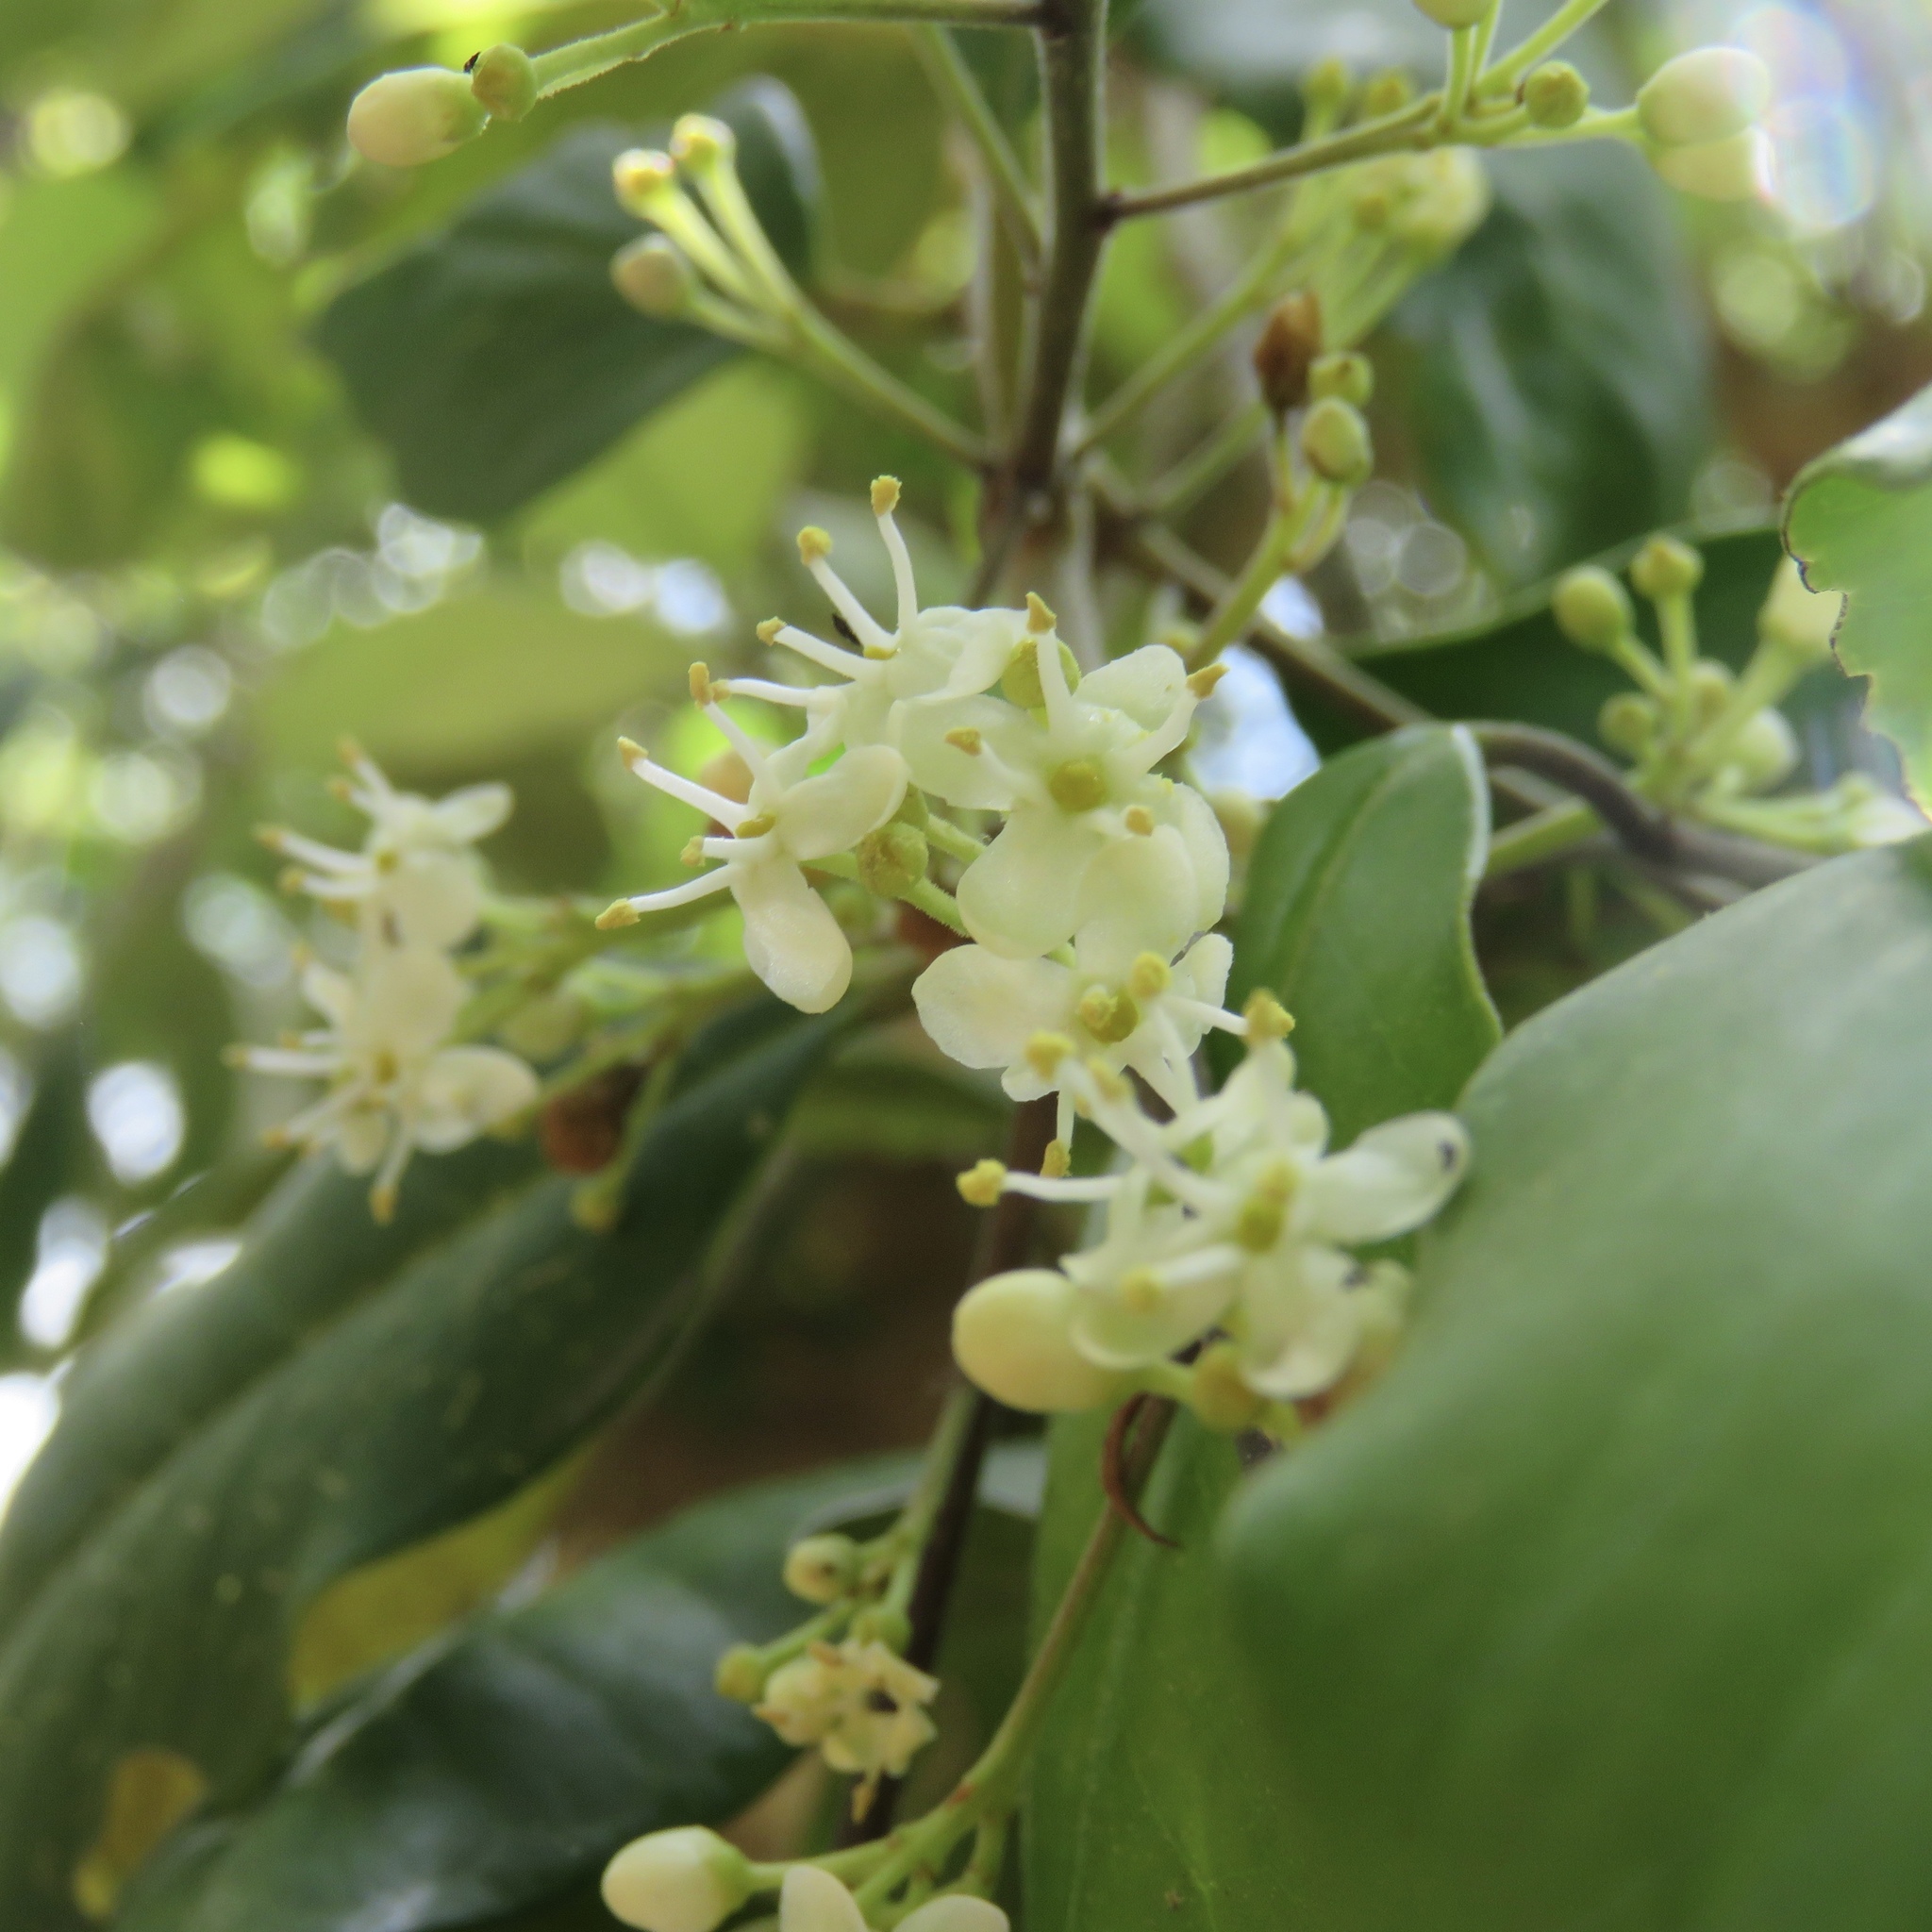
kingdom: Plantae
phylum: Tracheophyta
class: Magnoliopsida
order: Aquifoliales
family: Aquifoliaceae
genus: Ilex
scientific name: Ilex opaca
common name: American holly
